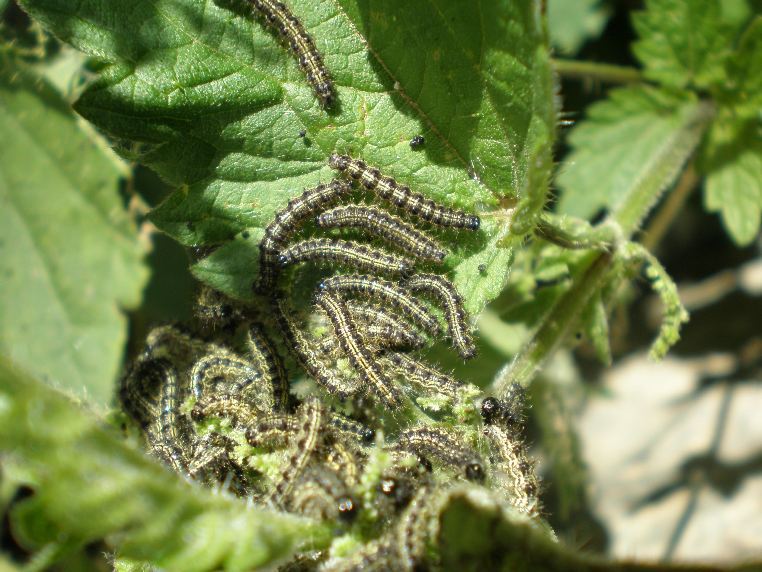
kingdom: Animalia
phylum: Arthropoda
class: Insecta
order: Lepidoptera
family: Nymphalidae
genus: Aglais
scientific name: Aglais urticae
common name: Small tortoiseshell
